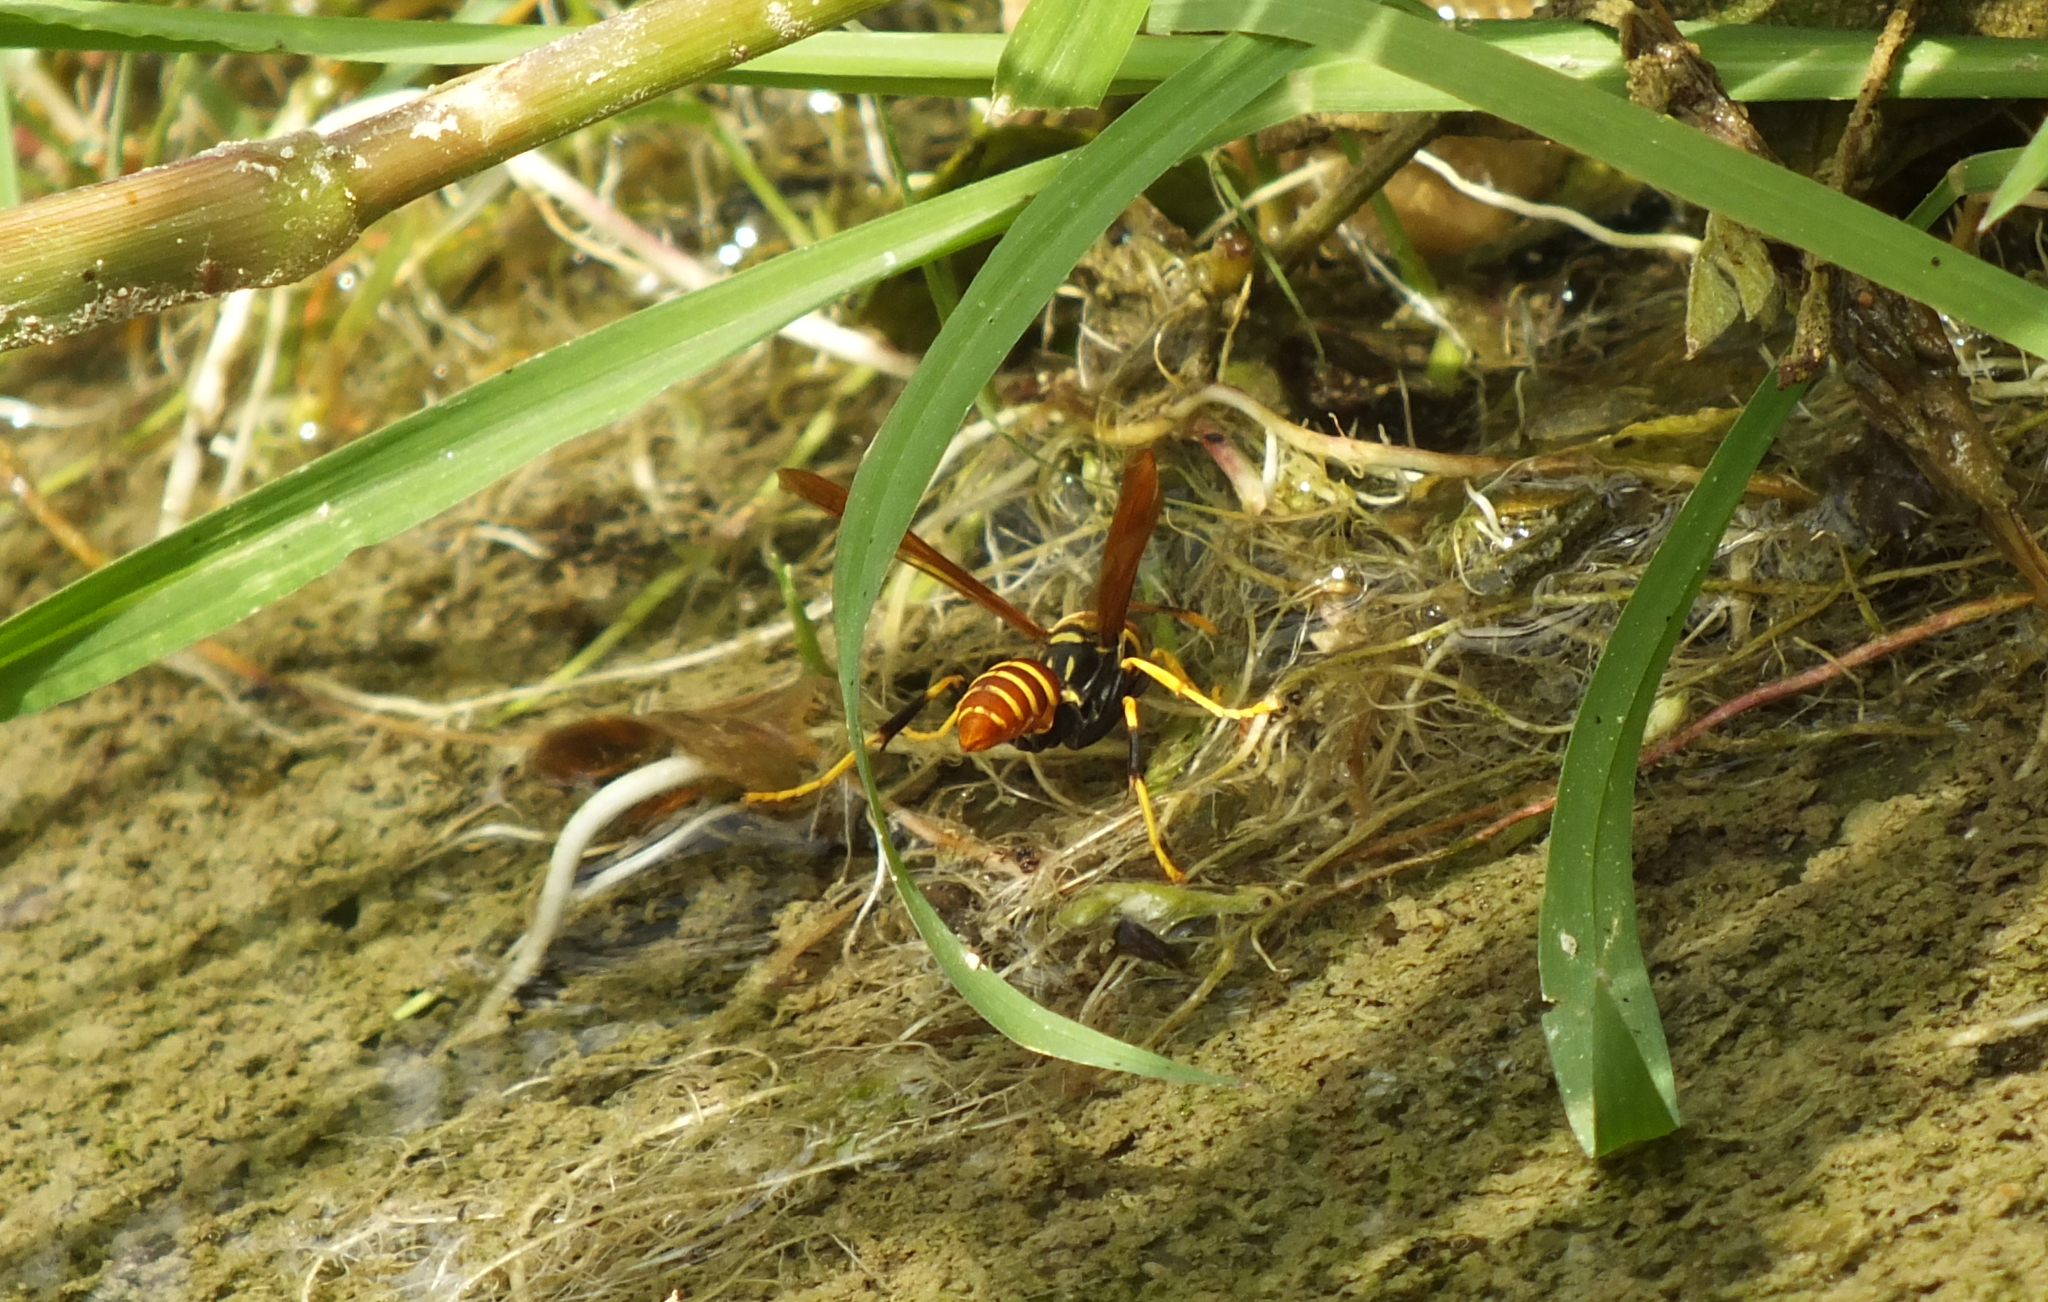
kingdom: Animalia
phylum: Arthropoda
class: Insecta
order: Hymenoptera
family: Eumenidae
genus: Polistes
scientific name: Polistes crinitus
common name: Jack spaniard
